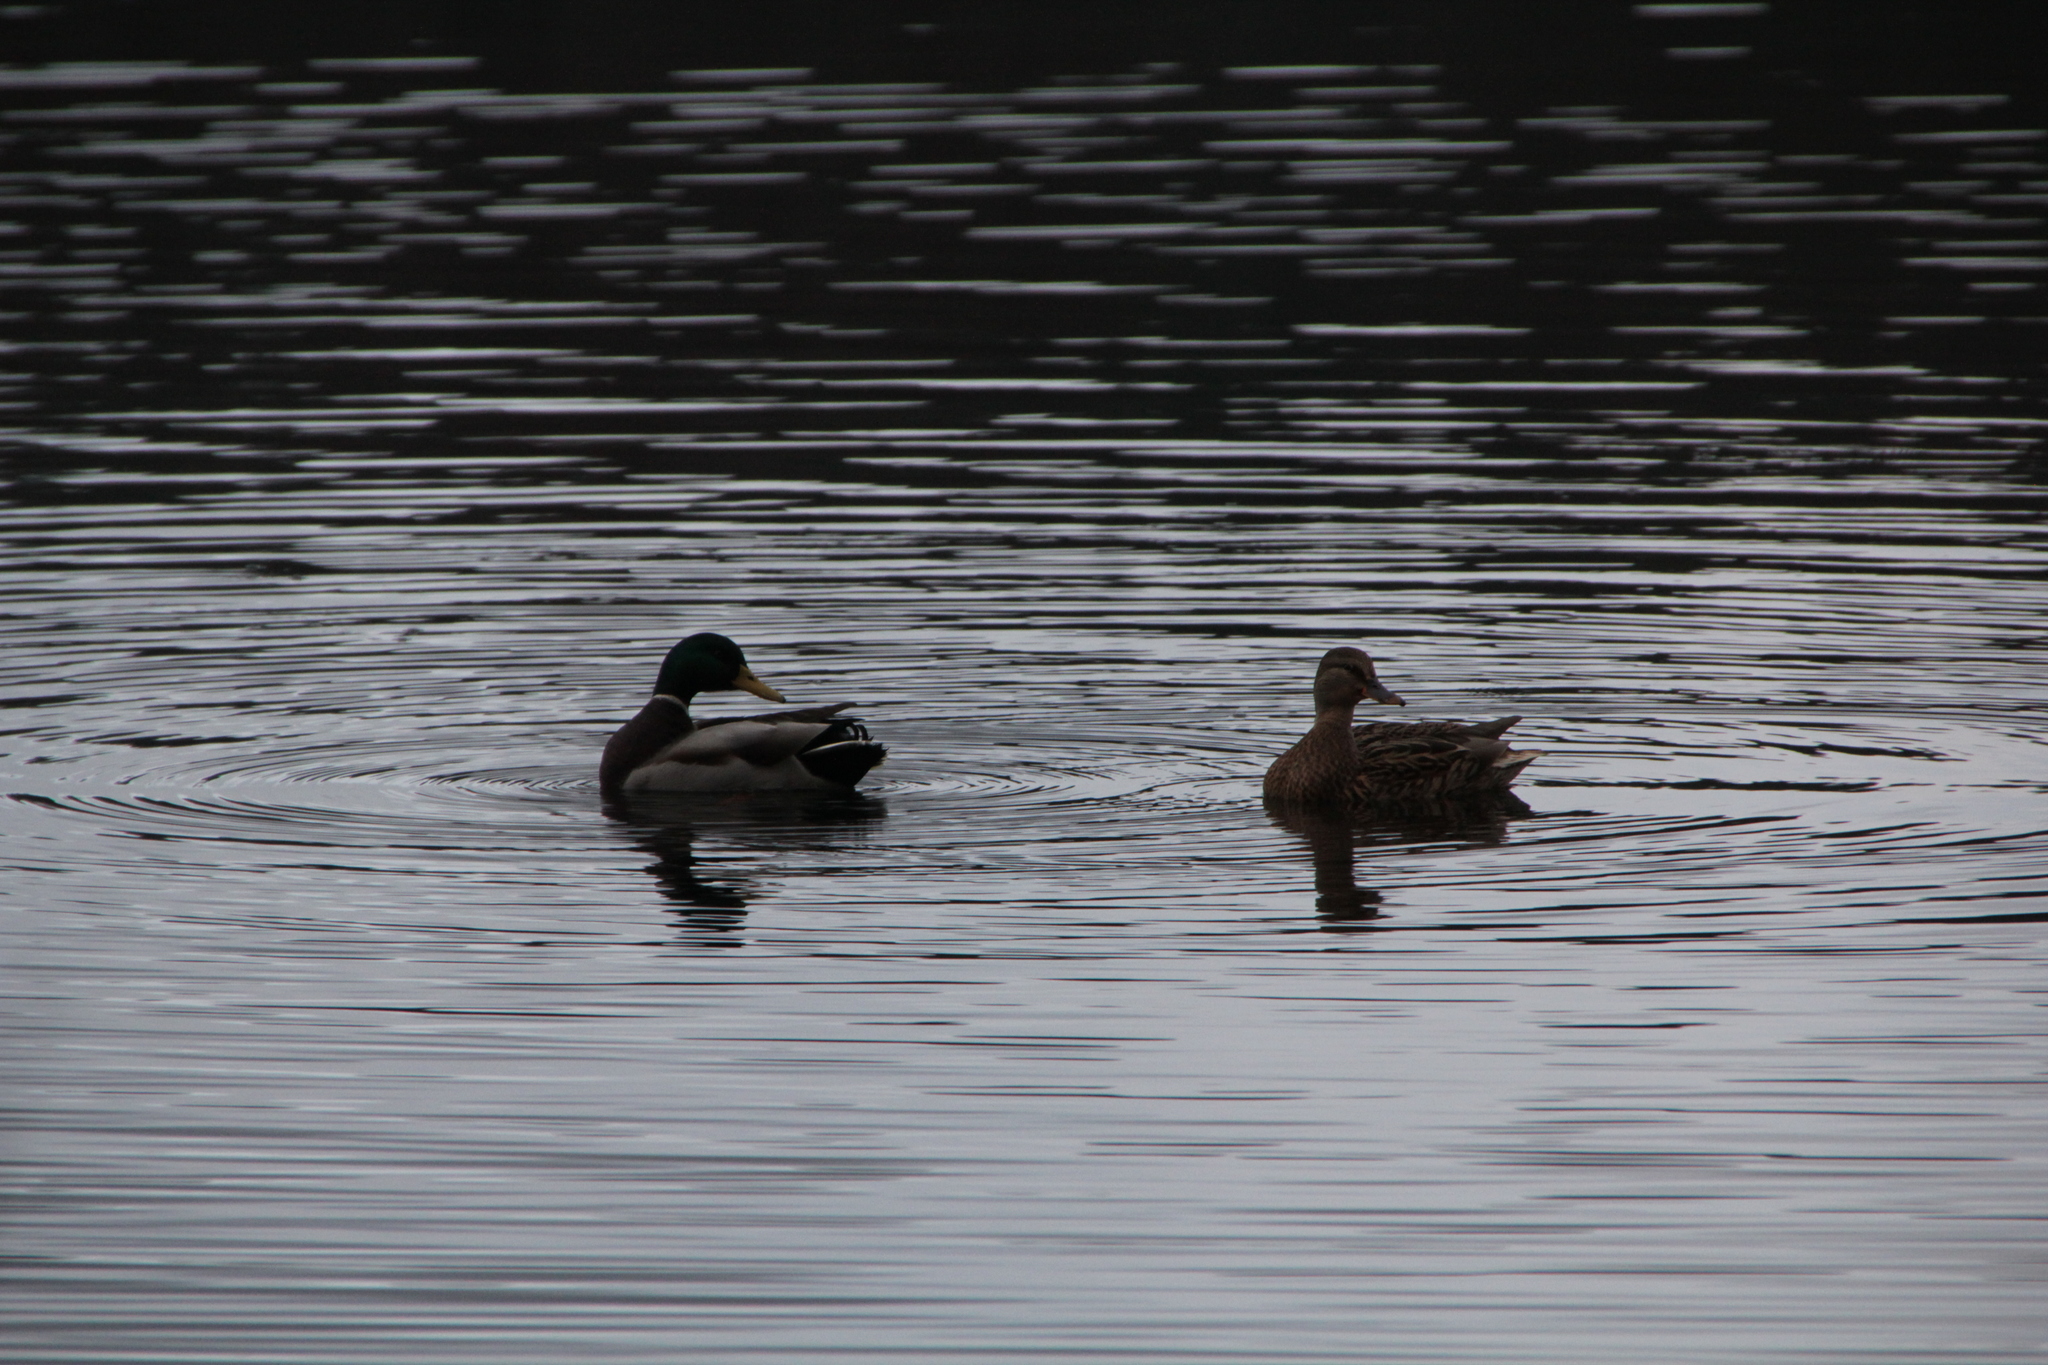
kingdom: Animalia
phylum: Chordata
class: Aves
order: Anseriformes
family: Anatidae
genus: Anas
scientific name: Anas platyrhynchos
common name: Mallard
